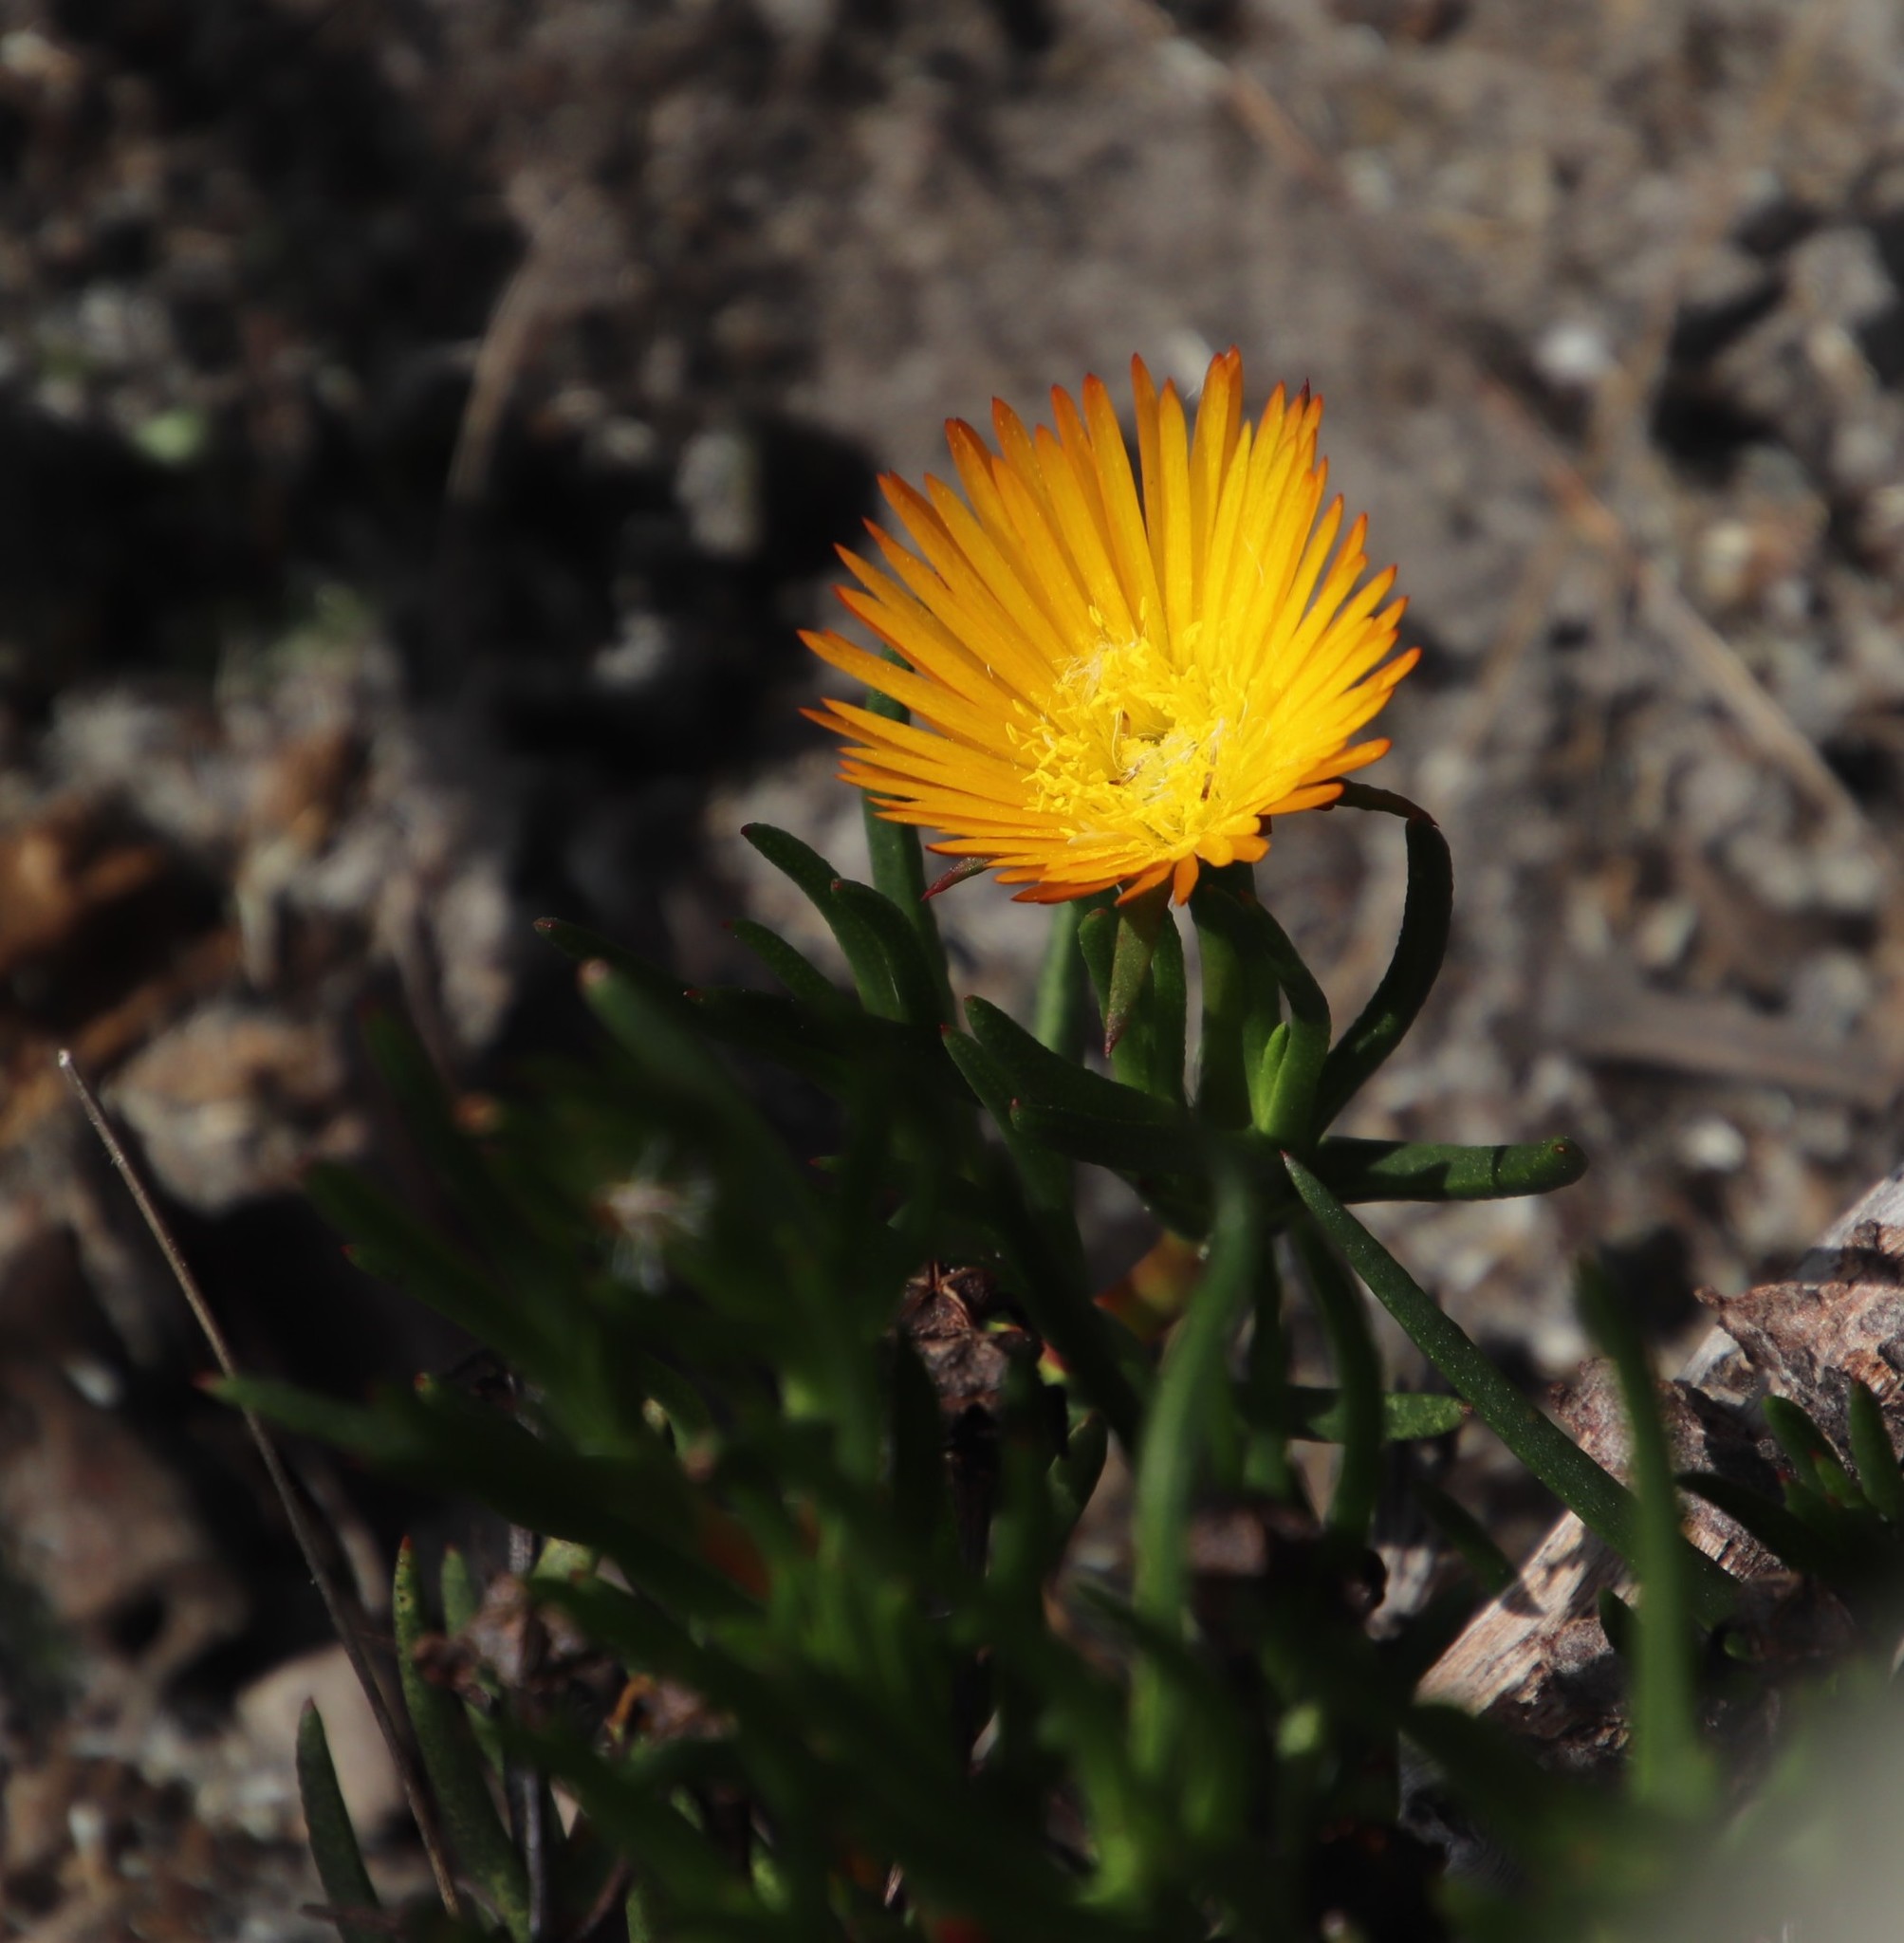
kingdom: Plantae
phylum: Tracheophyta
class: Magnoliopsida
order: Caryophyllales
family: Aizoaceae
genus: Lampranthus
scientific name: Lampranthus bicolor
